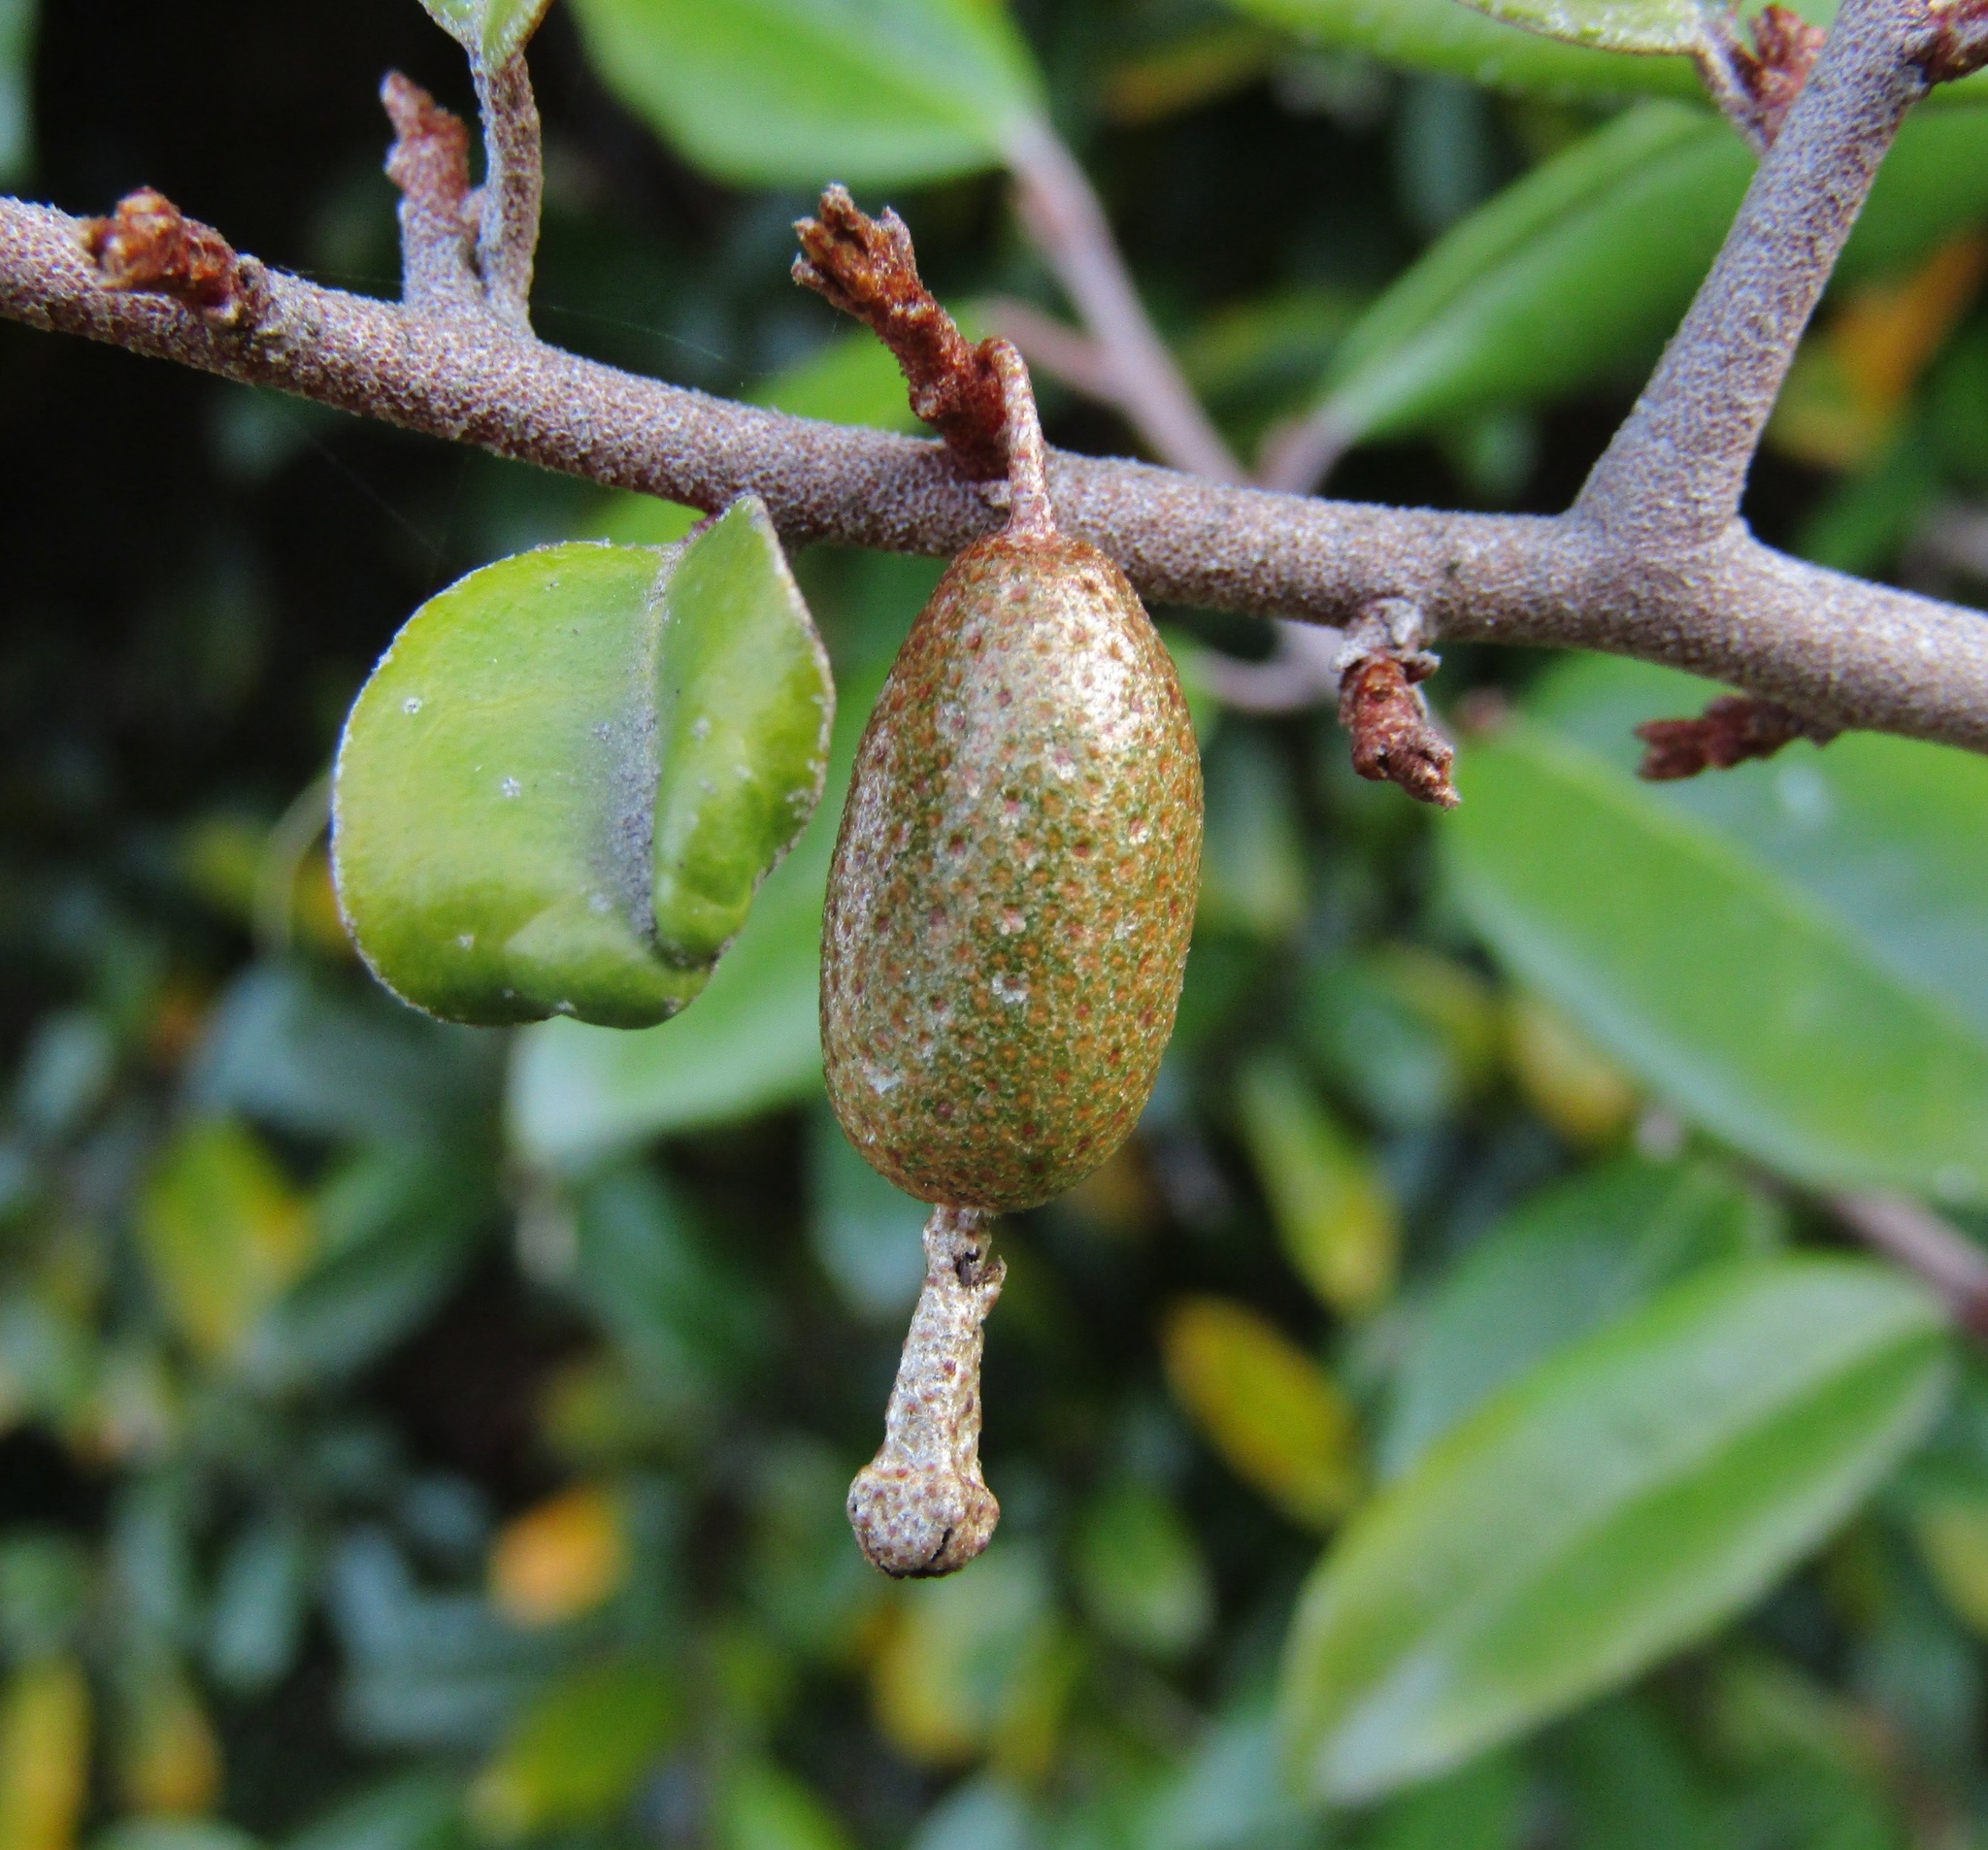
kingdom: Plantae
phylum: Tracheophyta
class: Magnoliopsida
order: Rosales
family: Elaeagnaceae
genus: Elaeagnus
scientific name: Elaeagnus reflexa
